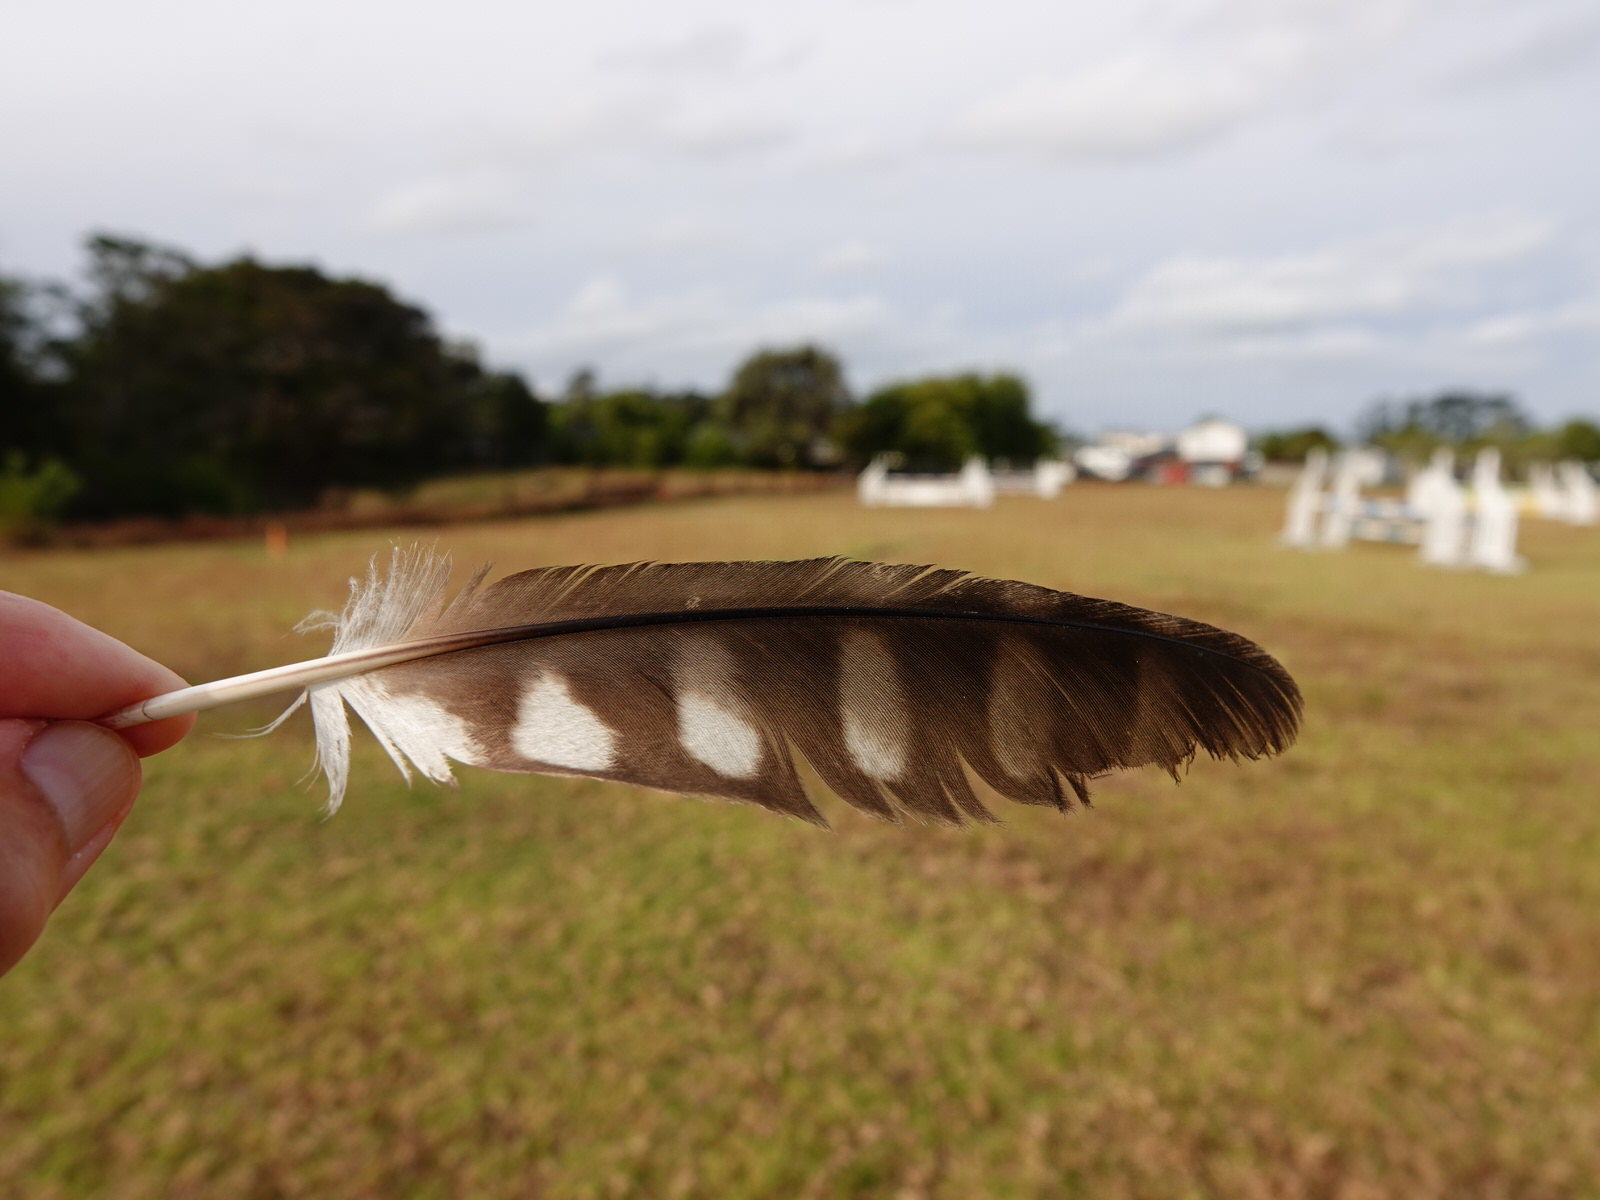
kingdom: Animalia
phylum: Chordata
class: Aves
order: Strigiformes
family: Strigidae
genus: Ninox
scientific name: Ninox novaeseelandiae
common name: Morepork
